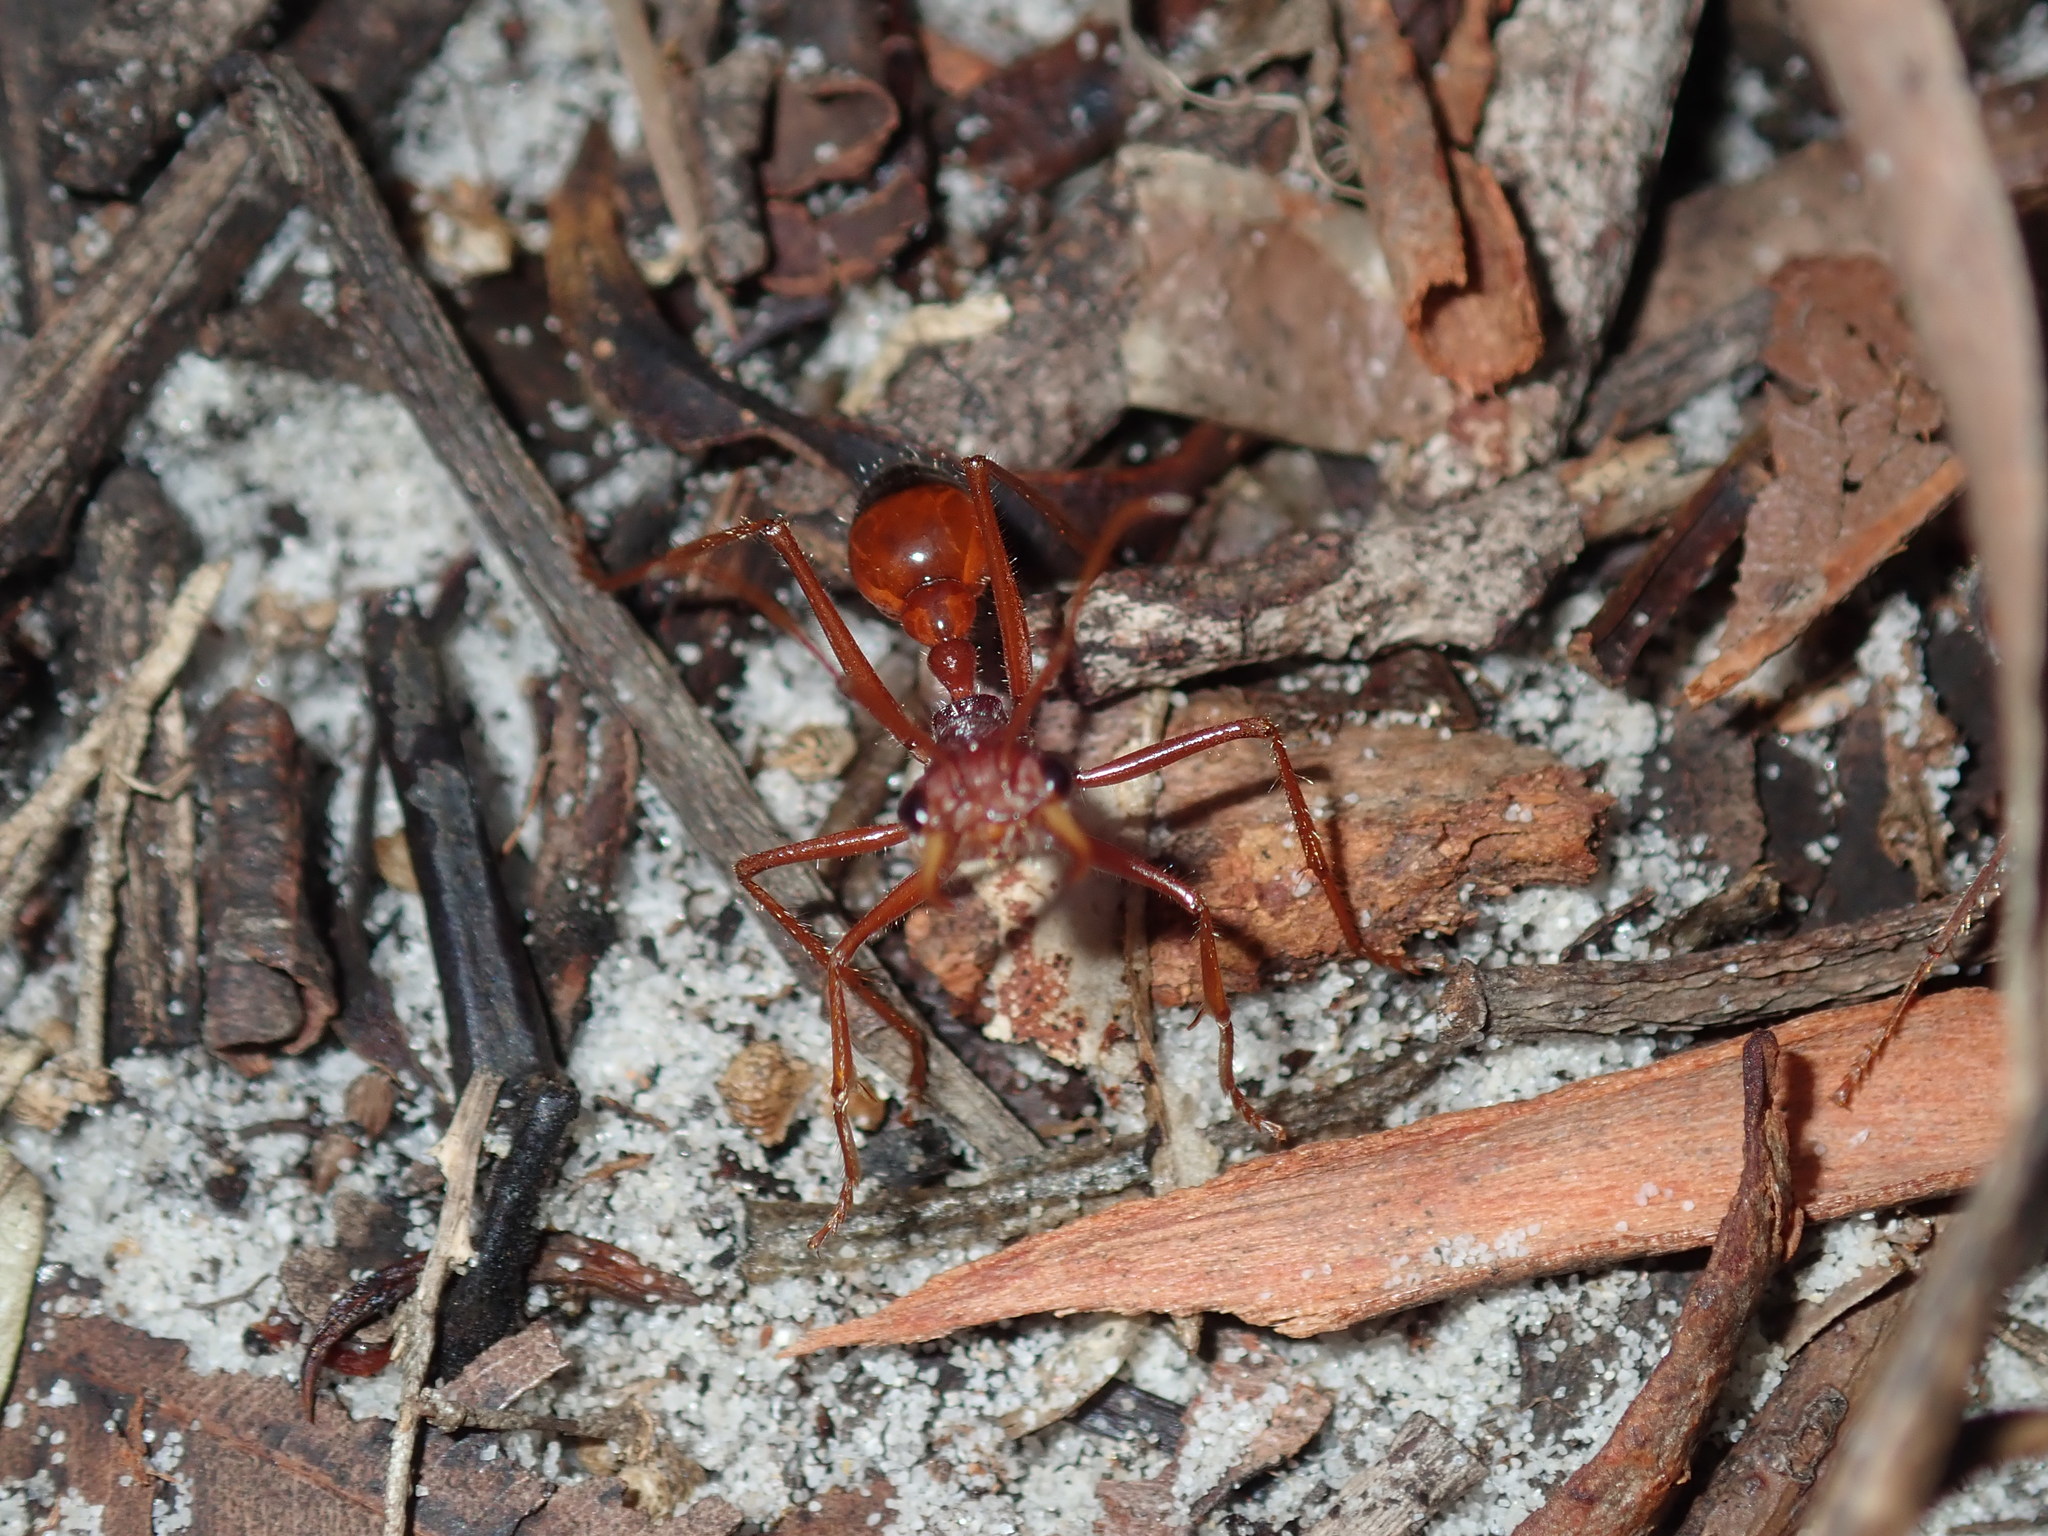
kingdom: Animalia
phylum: Arthropoda
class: Insecta
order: Hymenoptera
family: Formicidae
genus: Myrmecia
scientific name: Myrmecia gulosa
